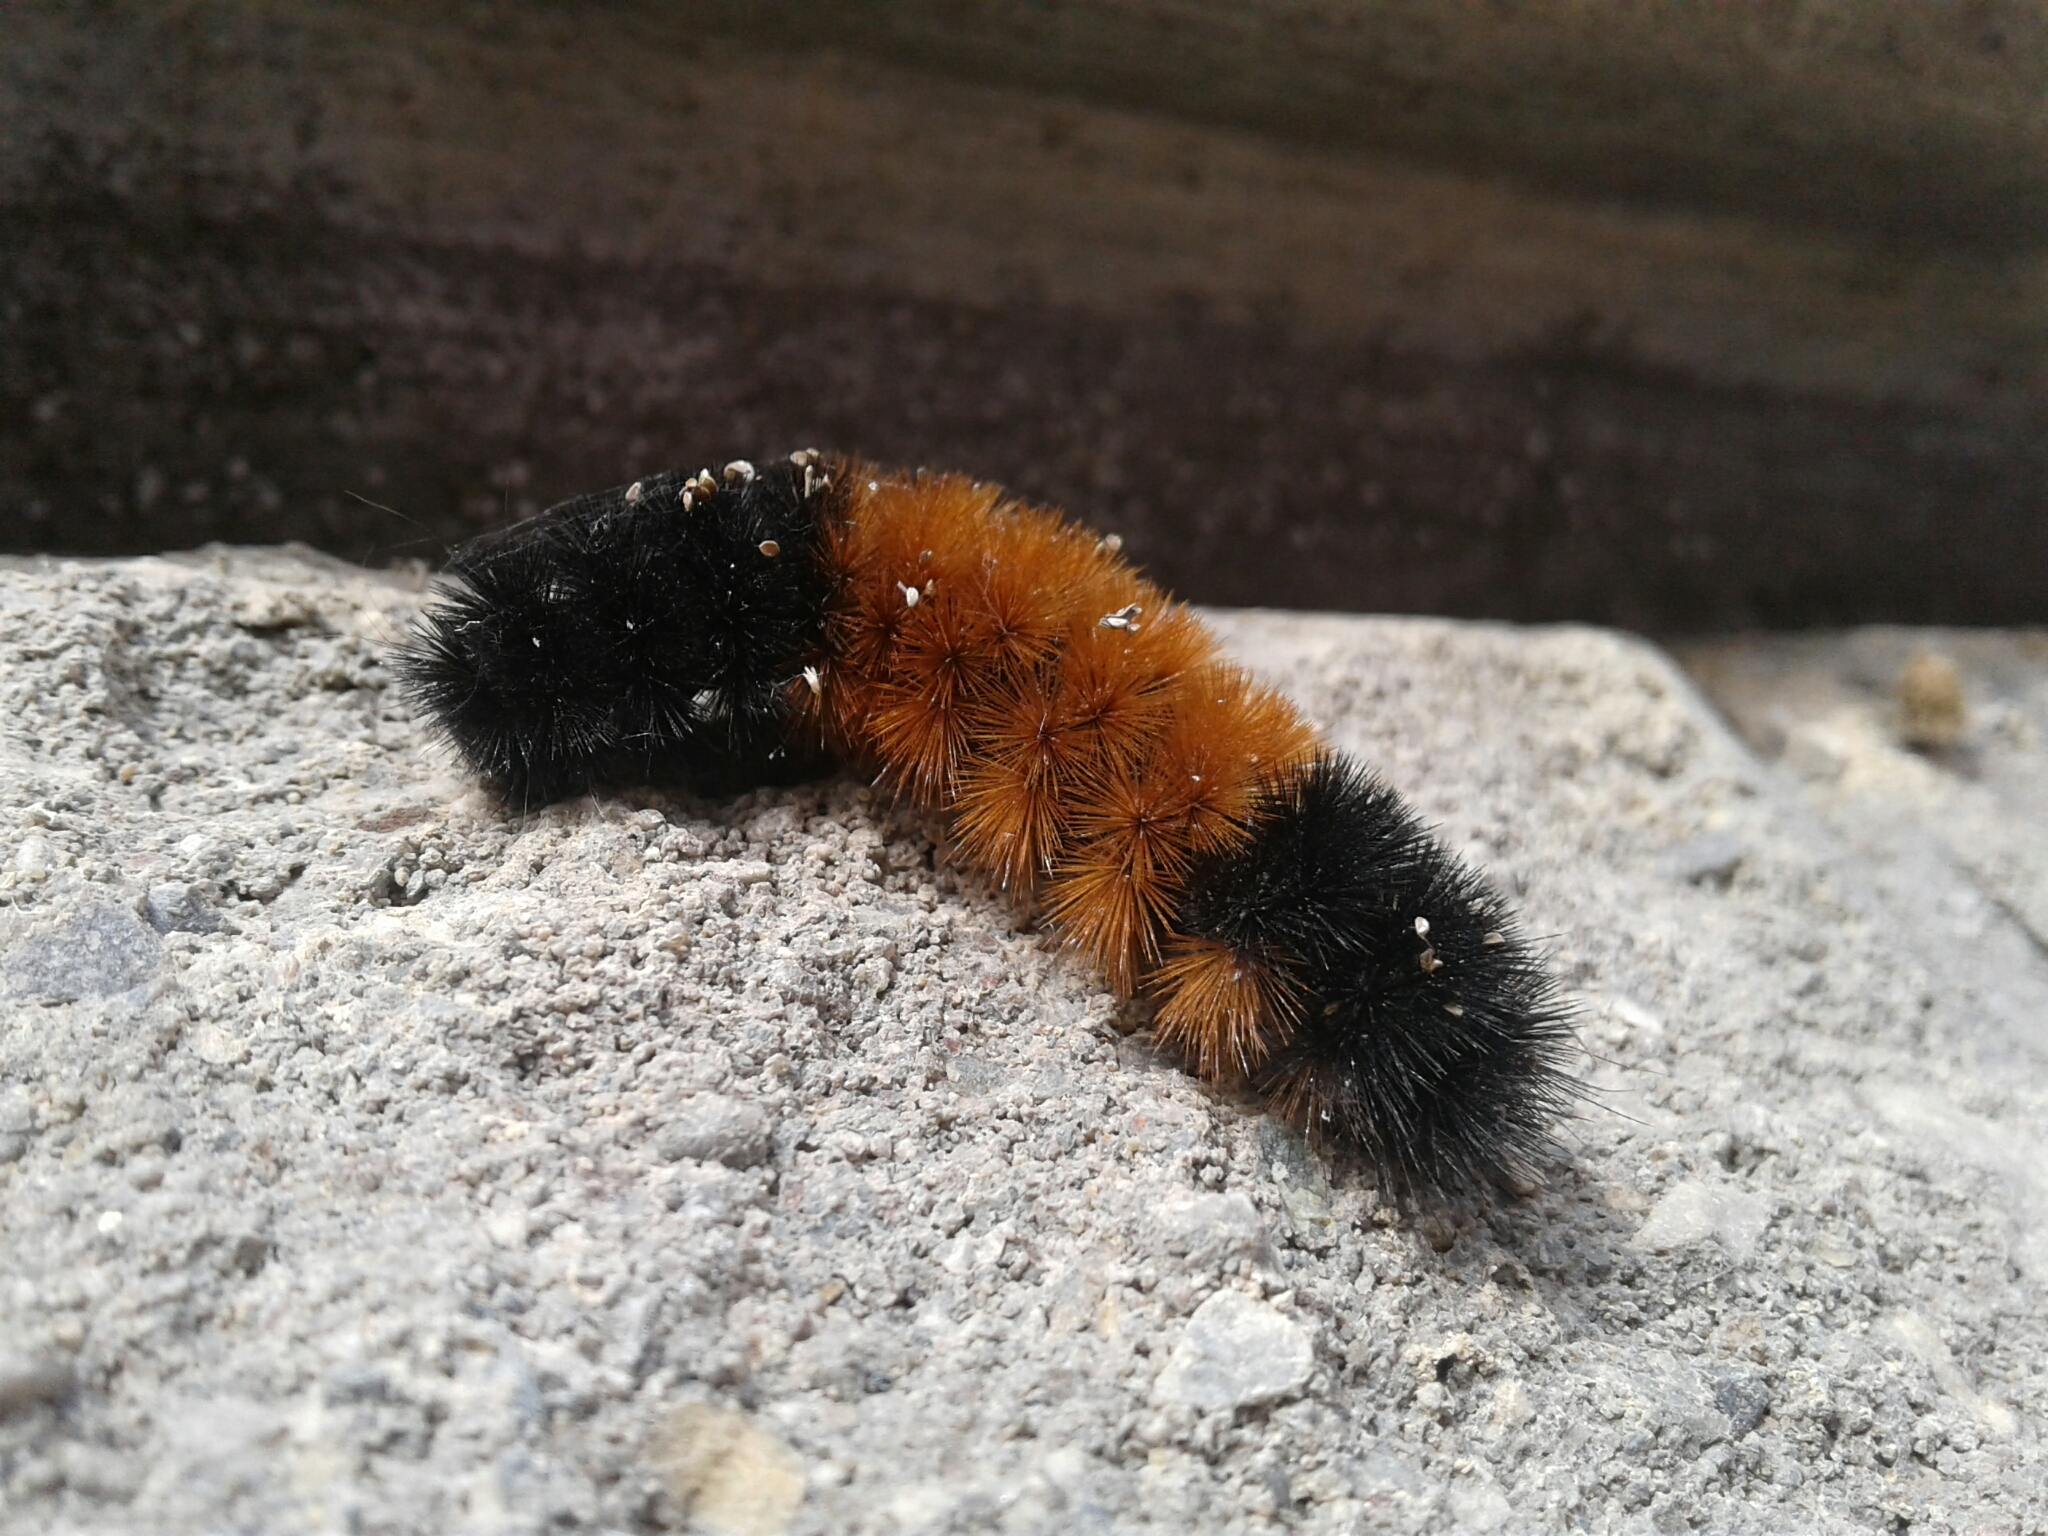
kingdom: Animalia
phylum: Arthropoda
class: Insecta
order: Lepidoptera
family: Erebidae
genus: Pyrrharctia
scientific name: Pyrrharctia isabella
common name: Isabella tiger moth
